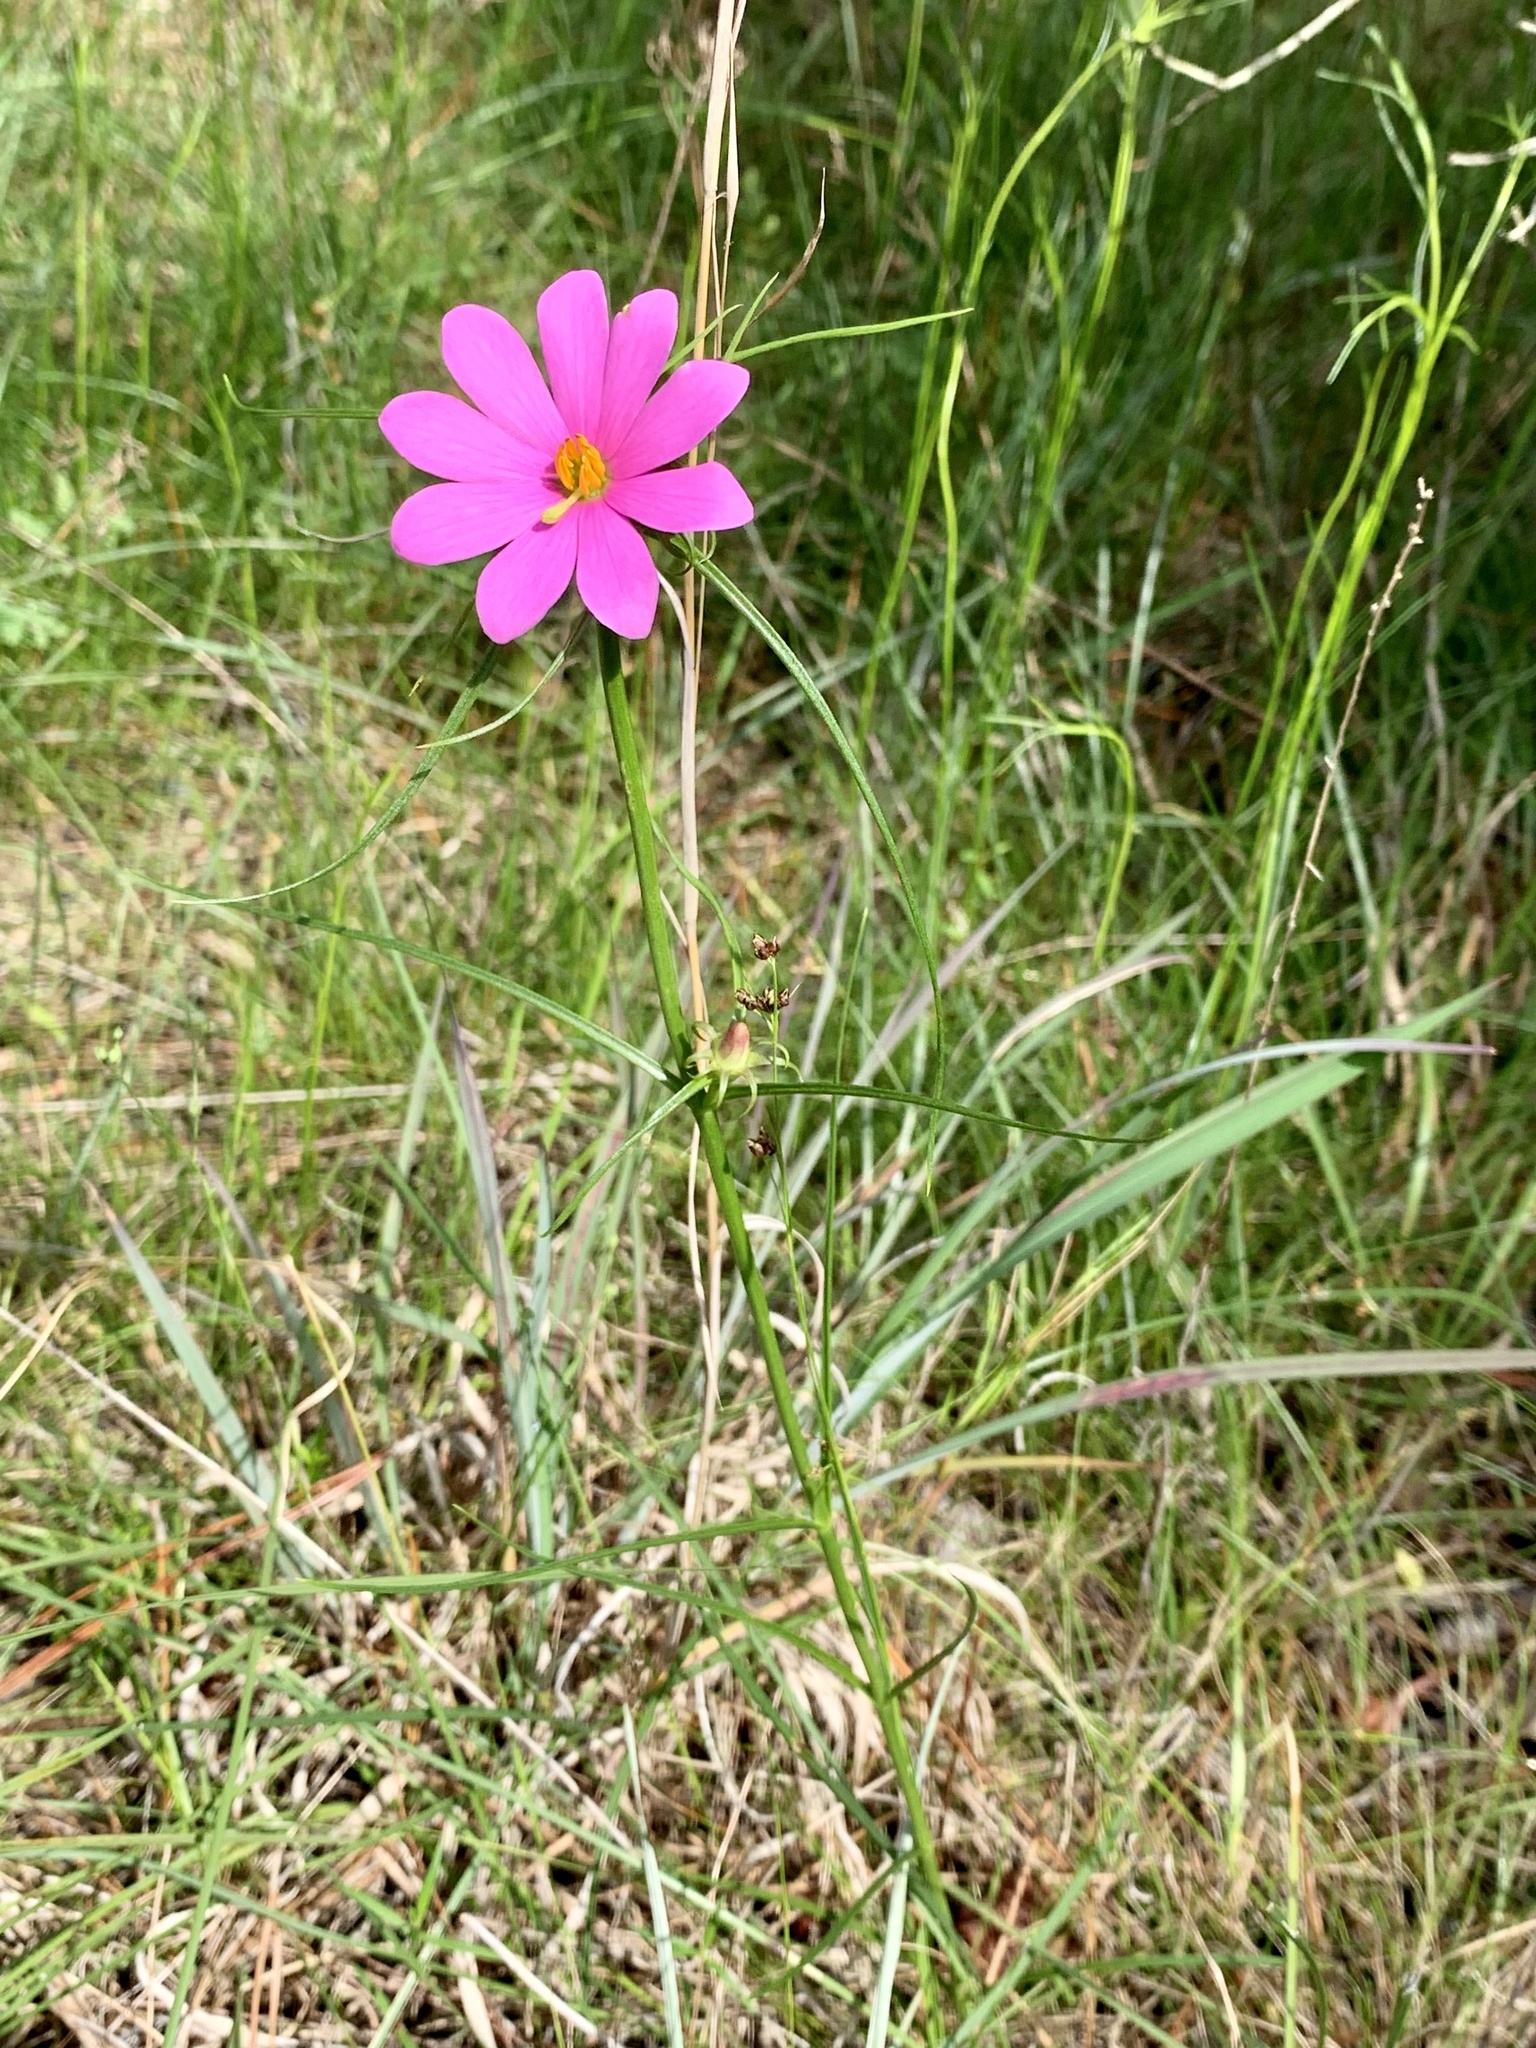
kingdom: Plantae
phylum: Tracheophyta
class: Magnoliopsida
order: Gentianales
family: Gentianaceae
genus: Sabatia
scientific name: Sabatia gentianoides
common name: Pinewoods rose-gentian
